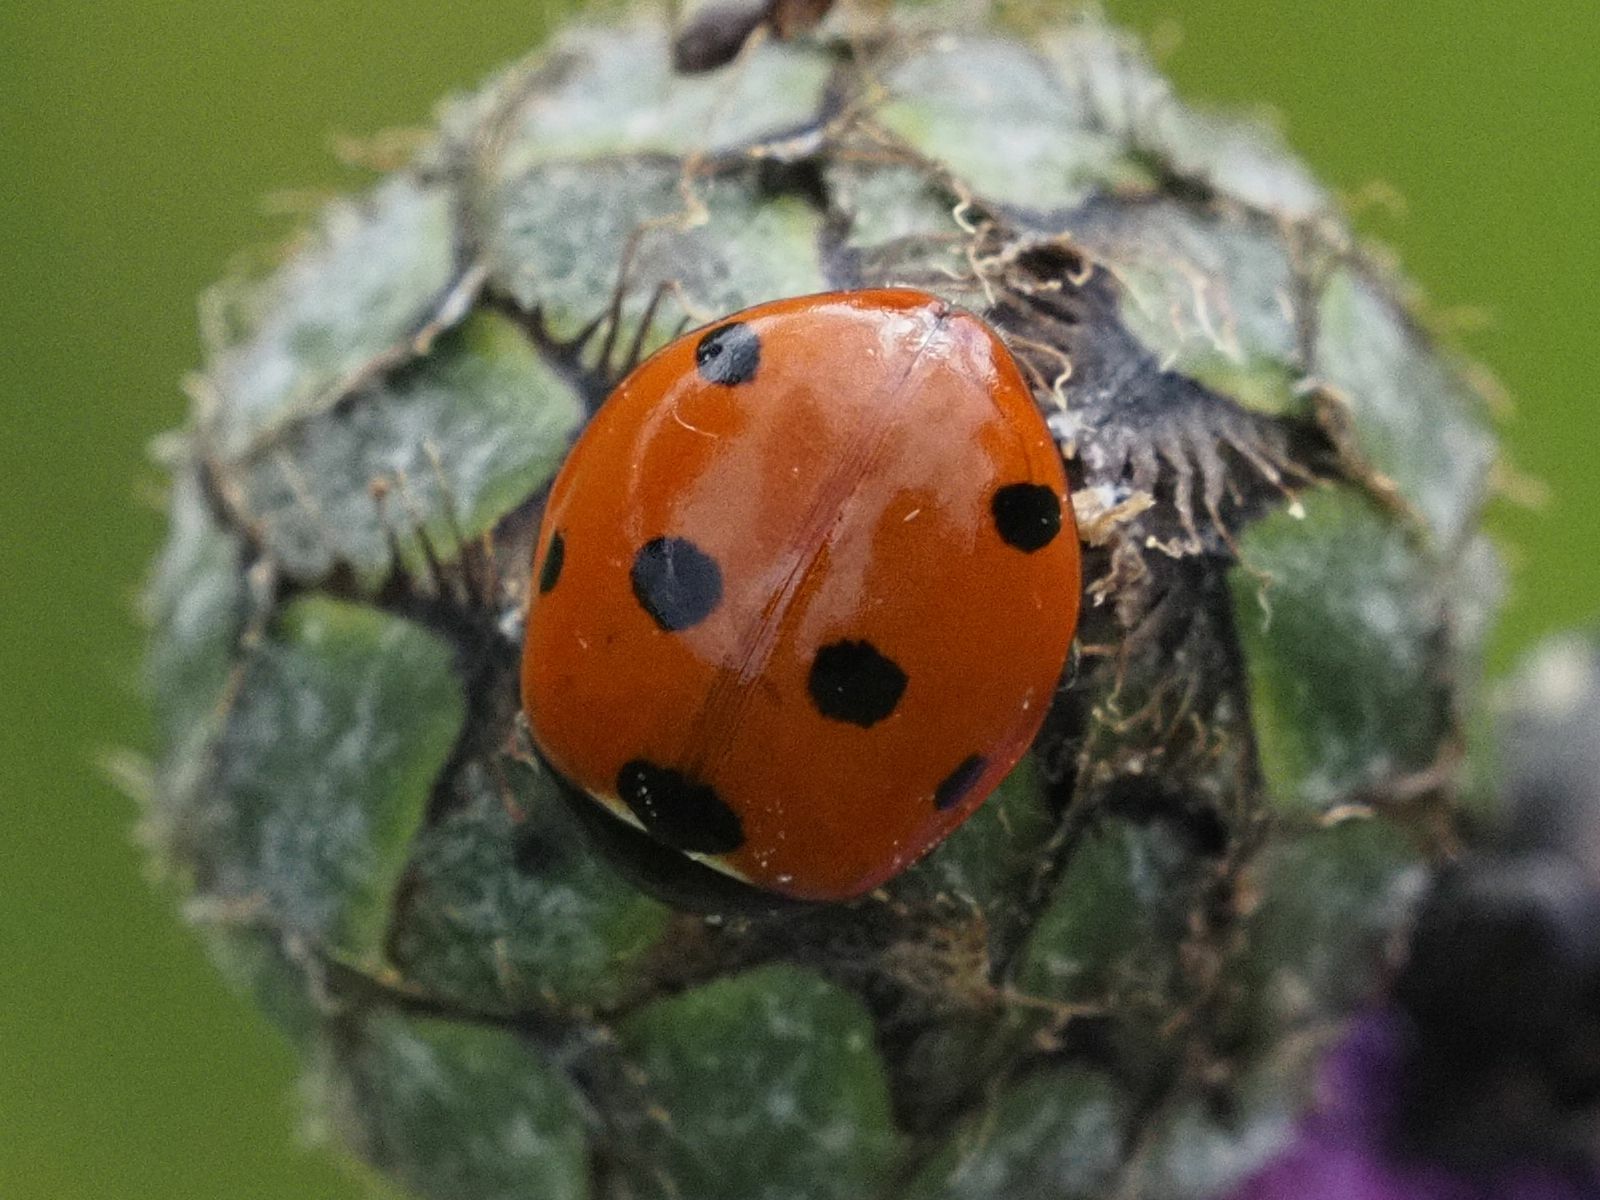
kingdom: Animalia
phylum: Arthropoda
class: Insecta
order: Coleoptera
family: Coccinellidae
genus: Coccinella
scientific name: Coccinella septempunctata
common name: Sevenspotted lady beetle
